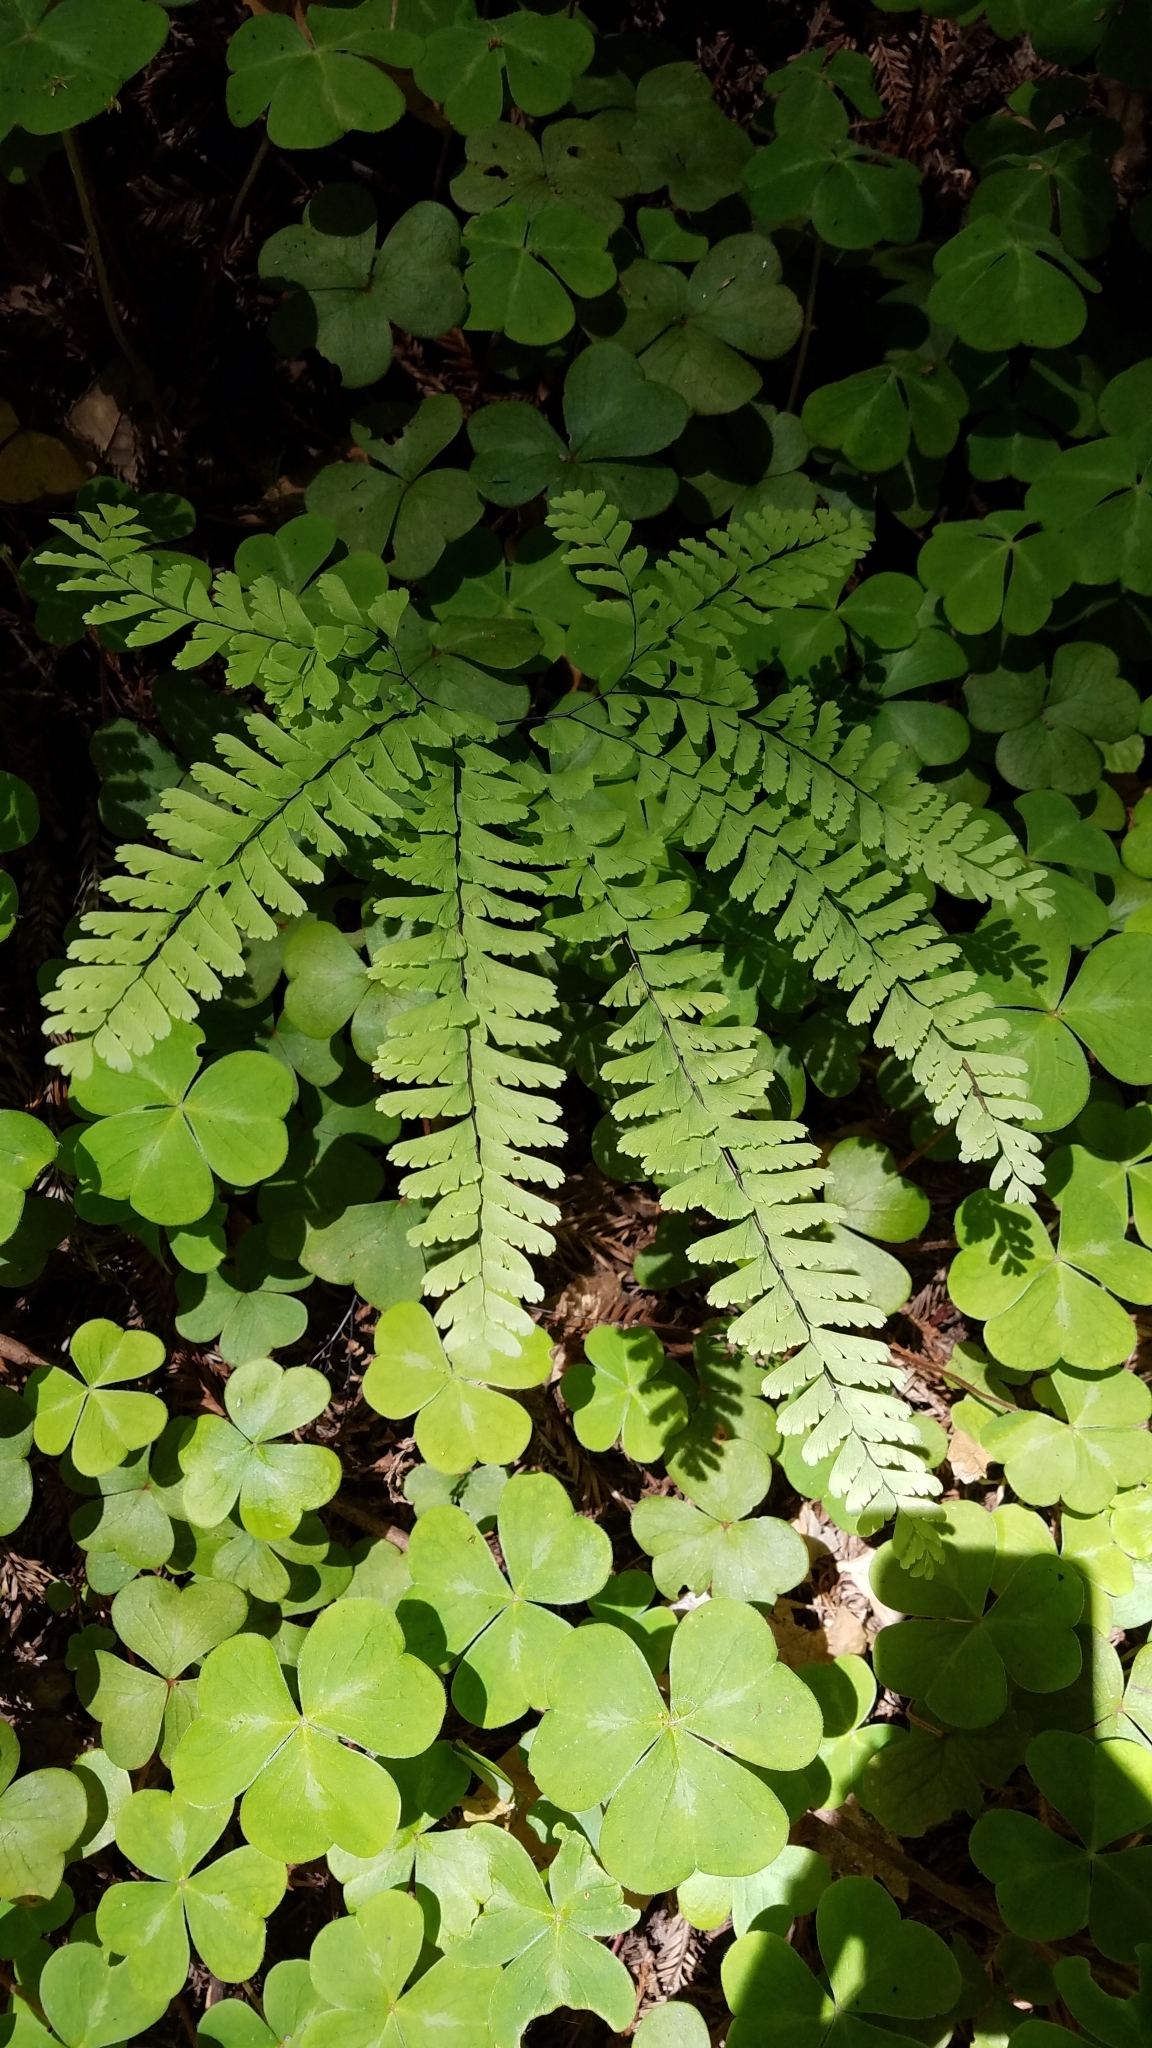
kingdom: Plantae
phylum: Tracheophyta
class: Polypodiopsida
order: Polypodiales
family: Pteridaceae
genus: Adiantum
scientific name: Adiantum aleuticum
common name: Aleutian maidenhair fern
